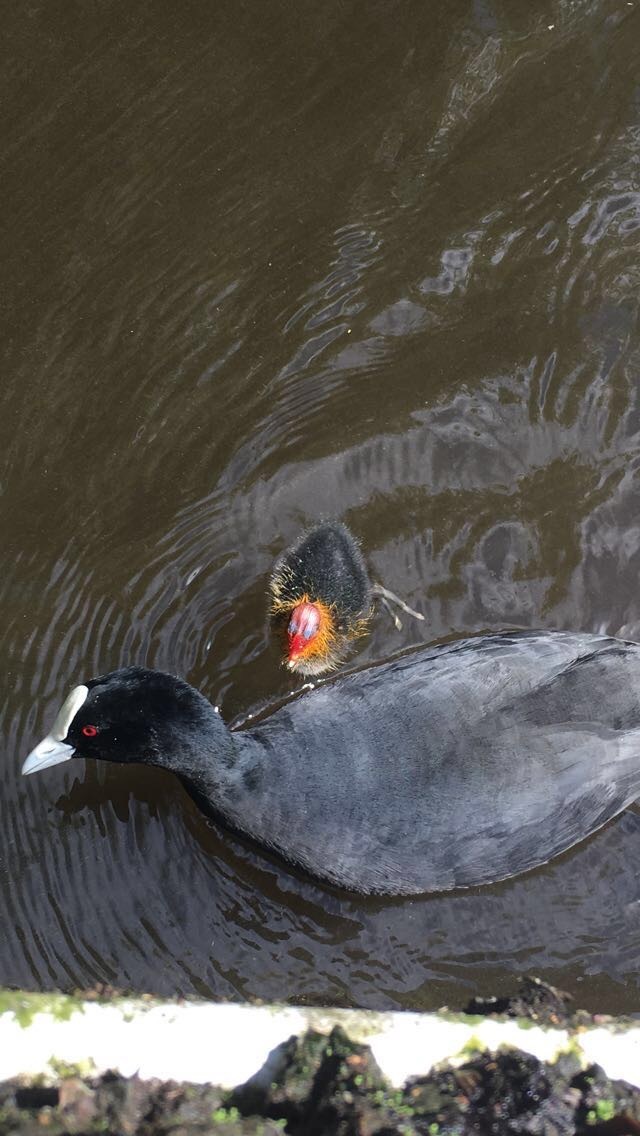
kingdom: Animalia
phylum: Chordata
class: Aves
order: Gruiformes
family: Rallidae
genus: Fulica
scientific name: Fulica atra
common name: Eurasian coot
